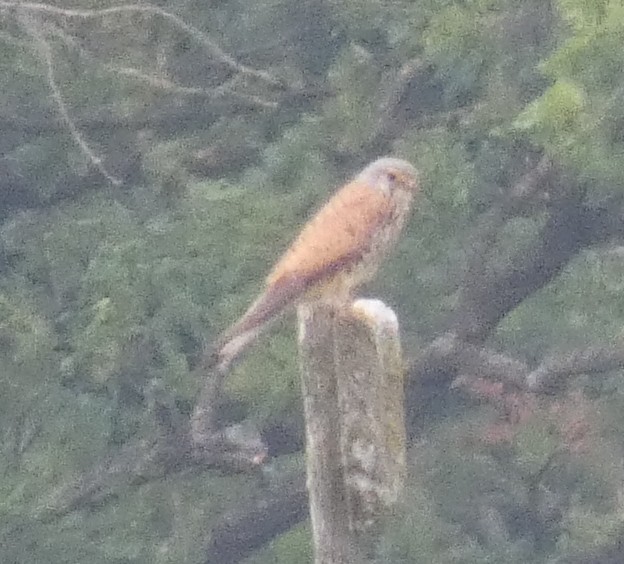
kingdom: Animalia
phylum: Chordata
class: Aves
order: Falconiformes
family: Falconidae
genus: Falco
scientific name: Falco tinnunculus
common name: Common kestrel
